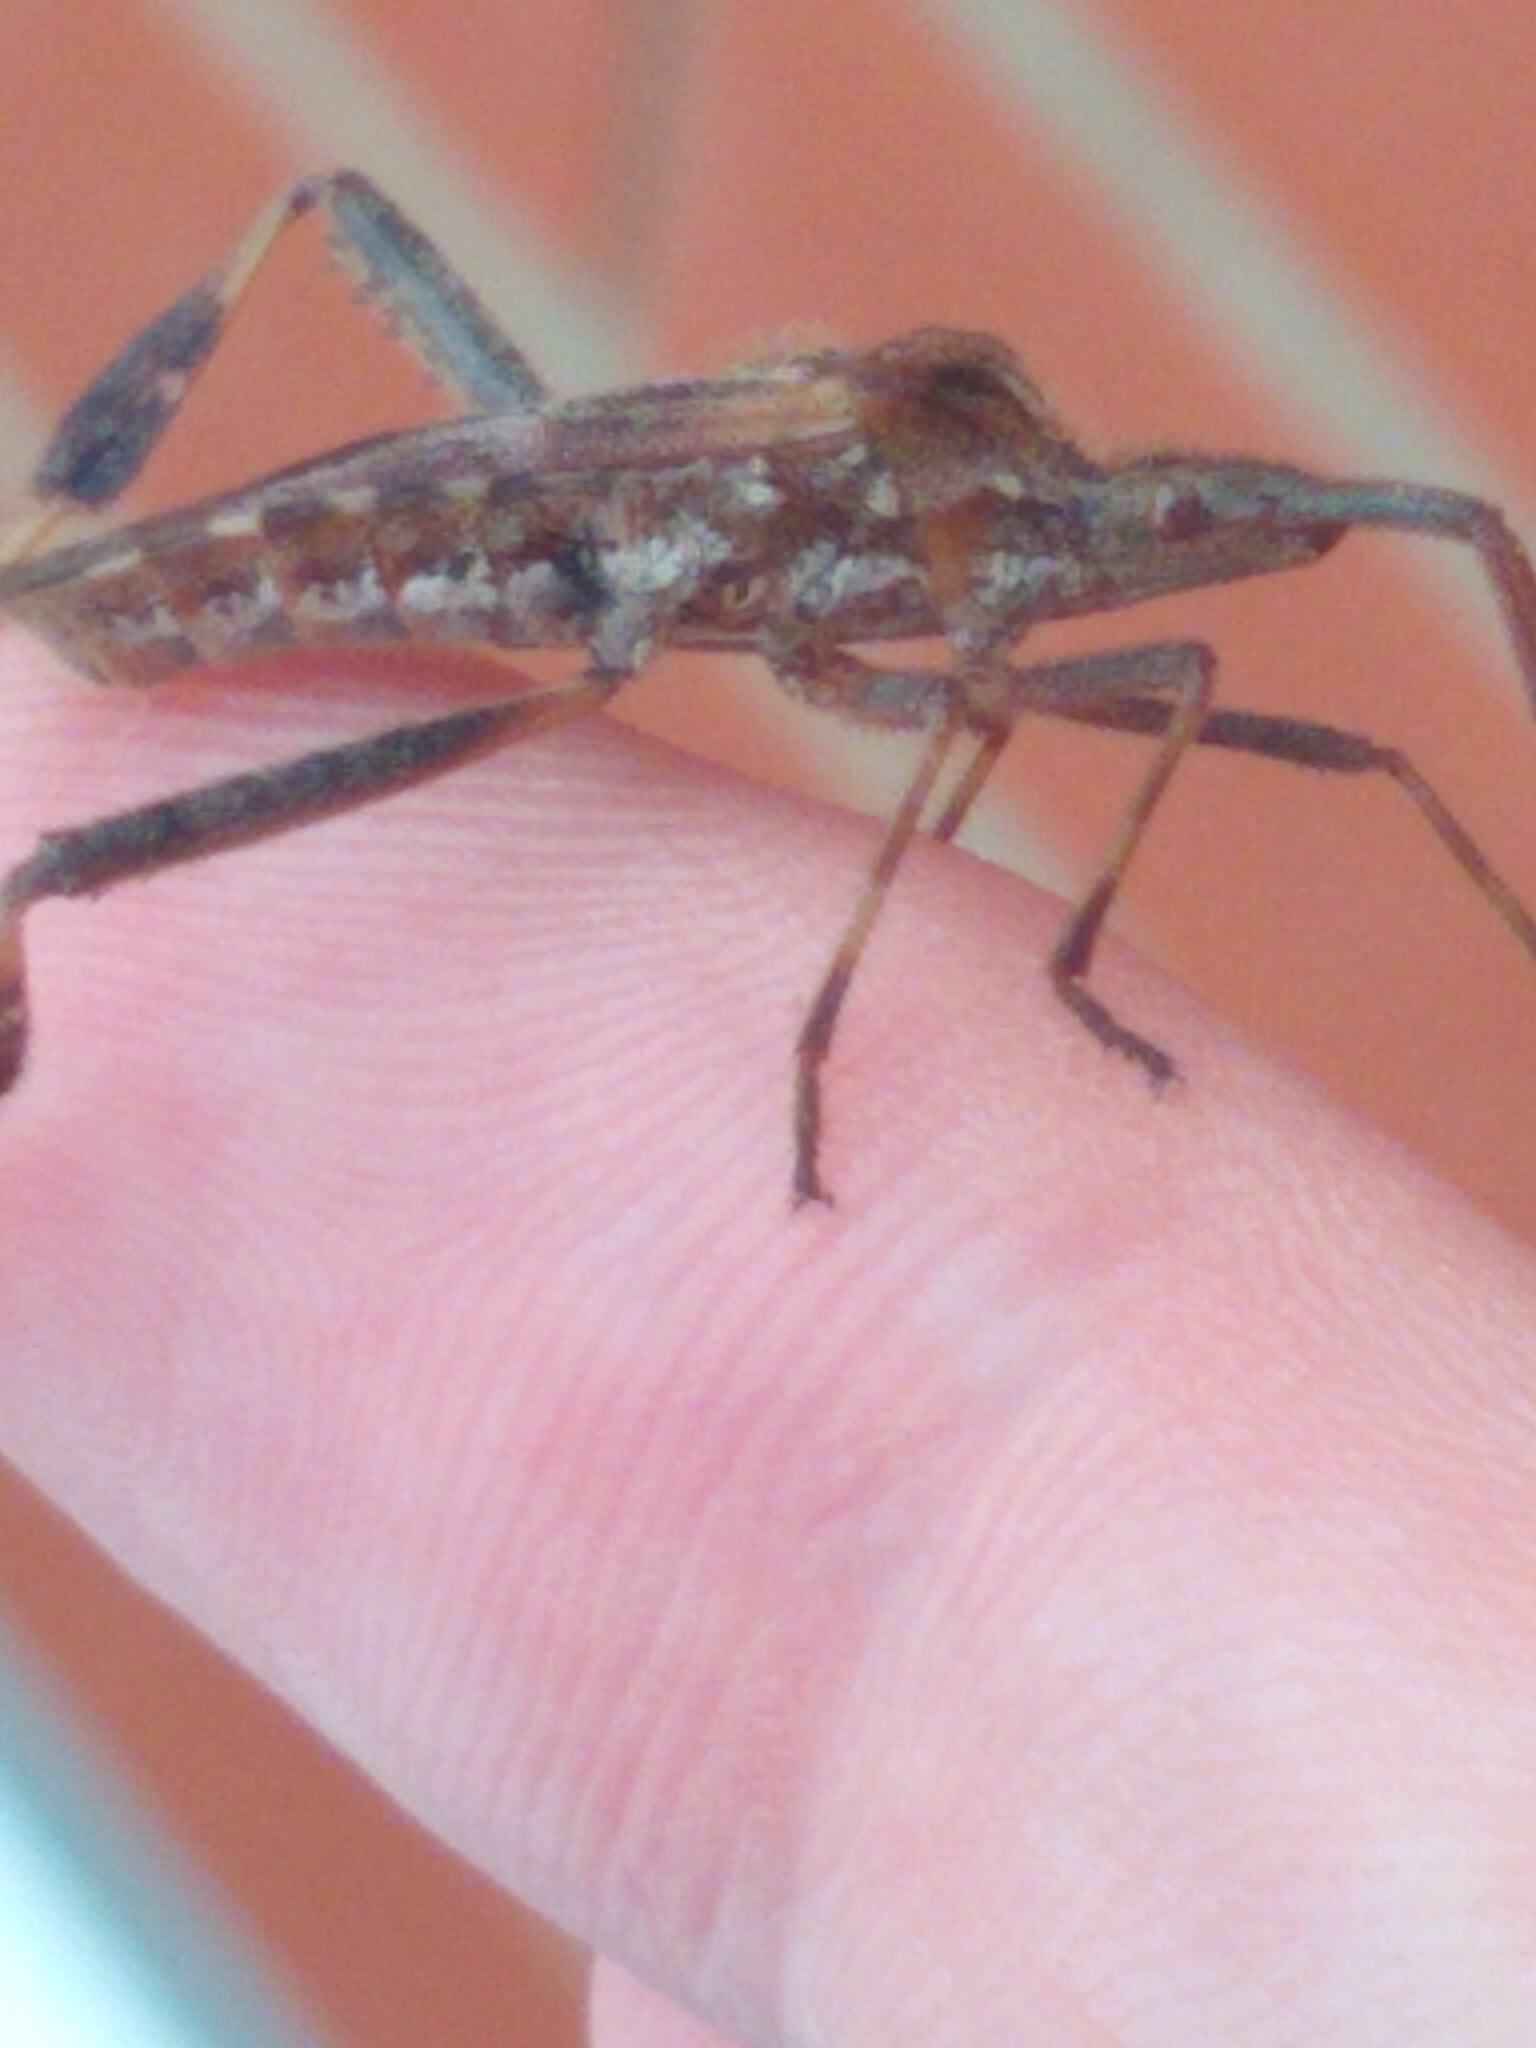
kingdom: Animalia
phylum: Arthropoda
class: Insecta
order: Hemiptera
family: Coreidae
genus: Leptoglossus
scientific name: Leptoglossus occidentalis
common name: Western conifer-seed bug
